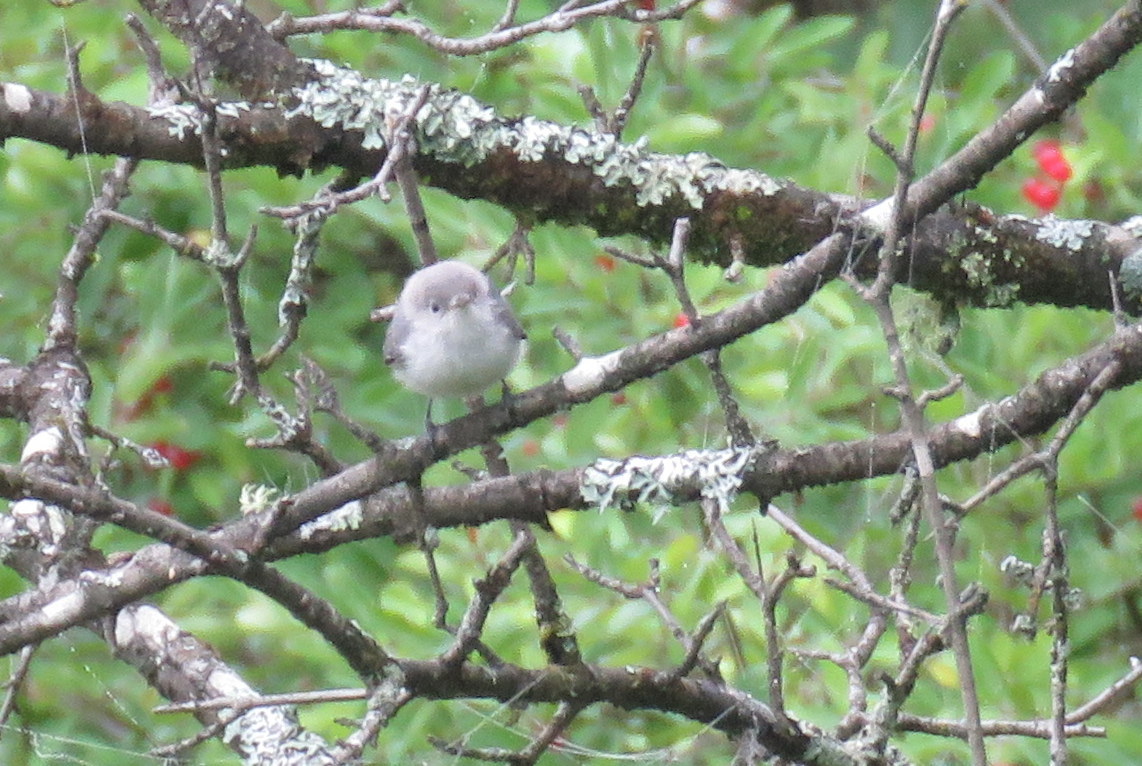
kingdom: Animalia
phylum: Chordata
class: Aves
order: Passeriformes
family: Polioptilidae
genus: Polioptila
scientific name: Polioptila caerulea
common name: Blue-gray gnatcatcher
